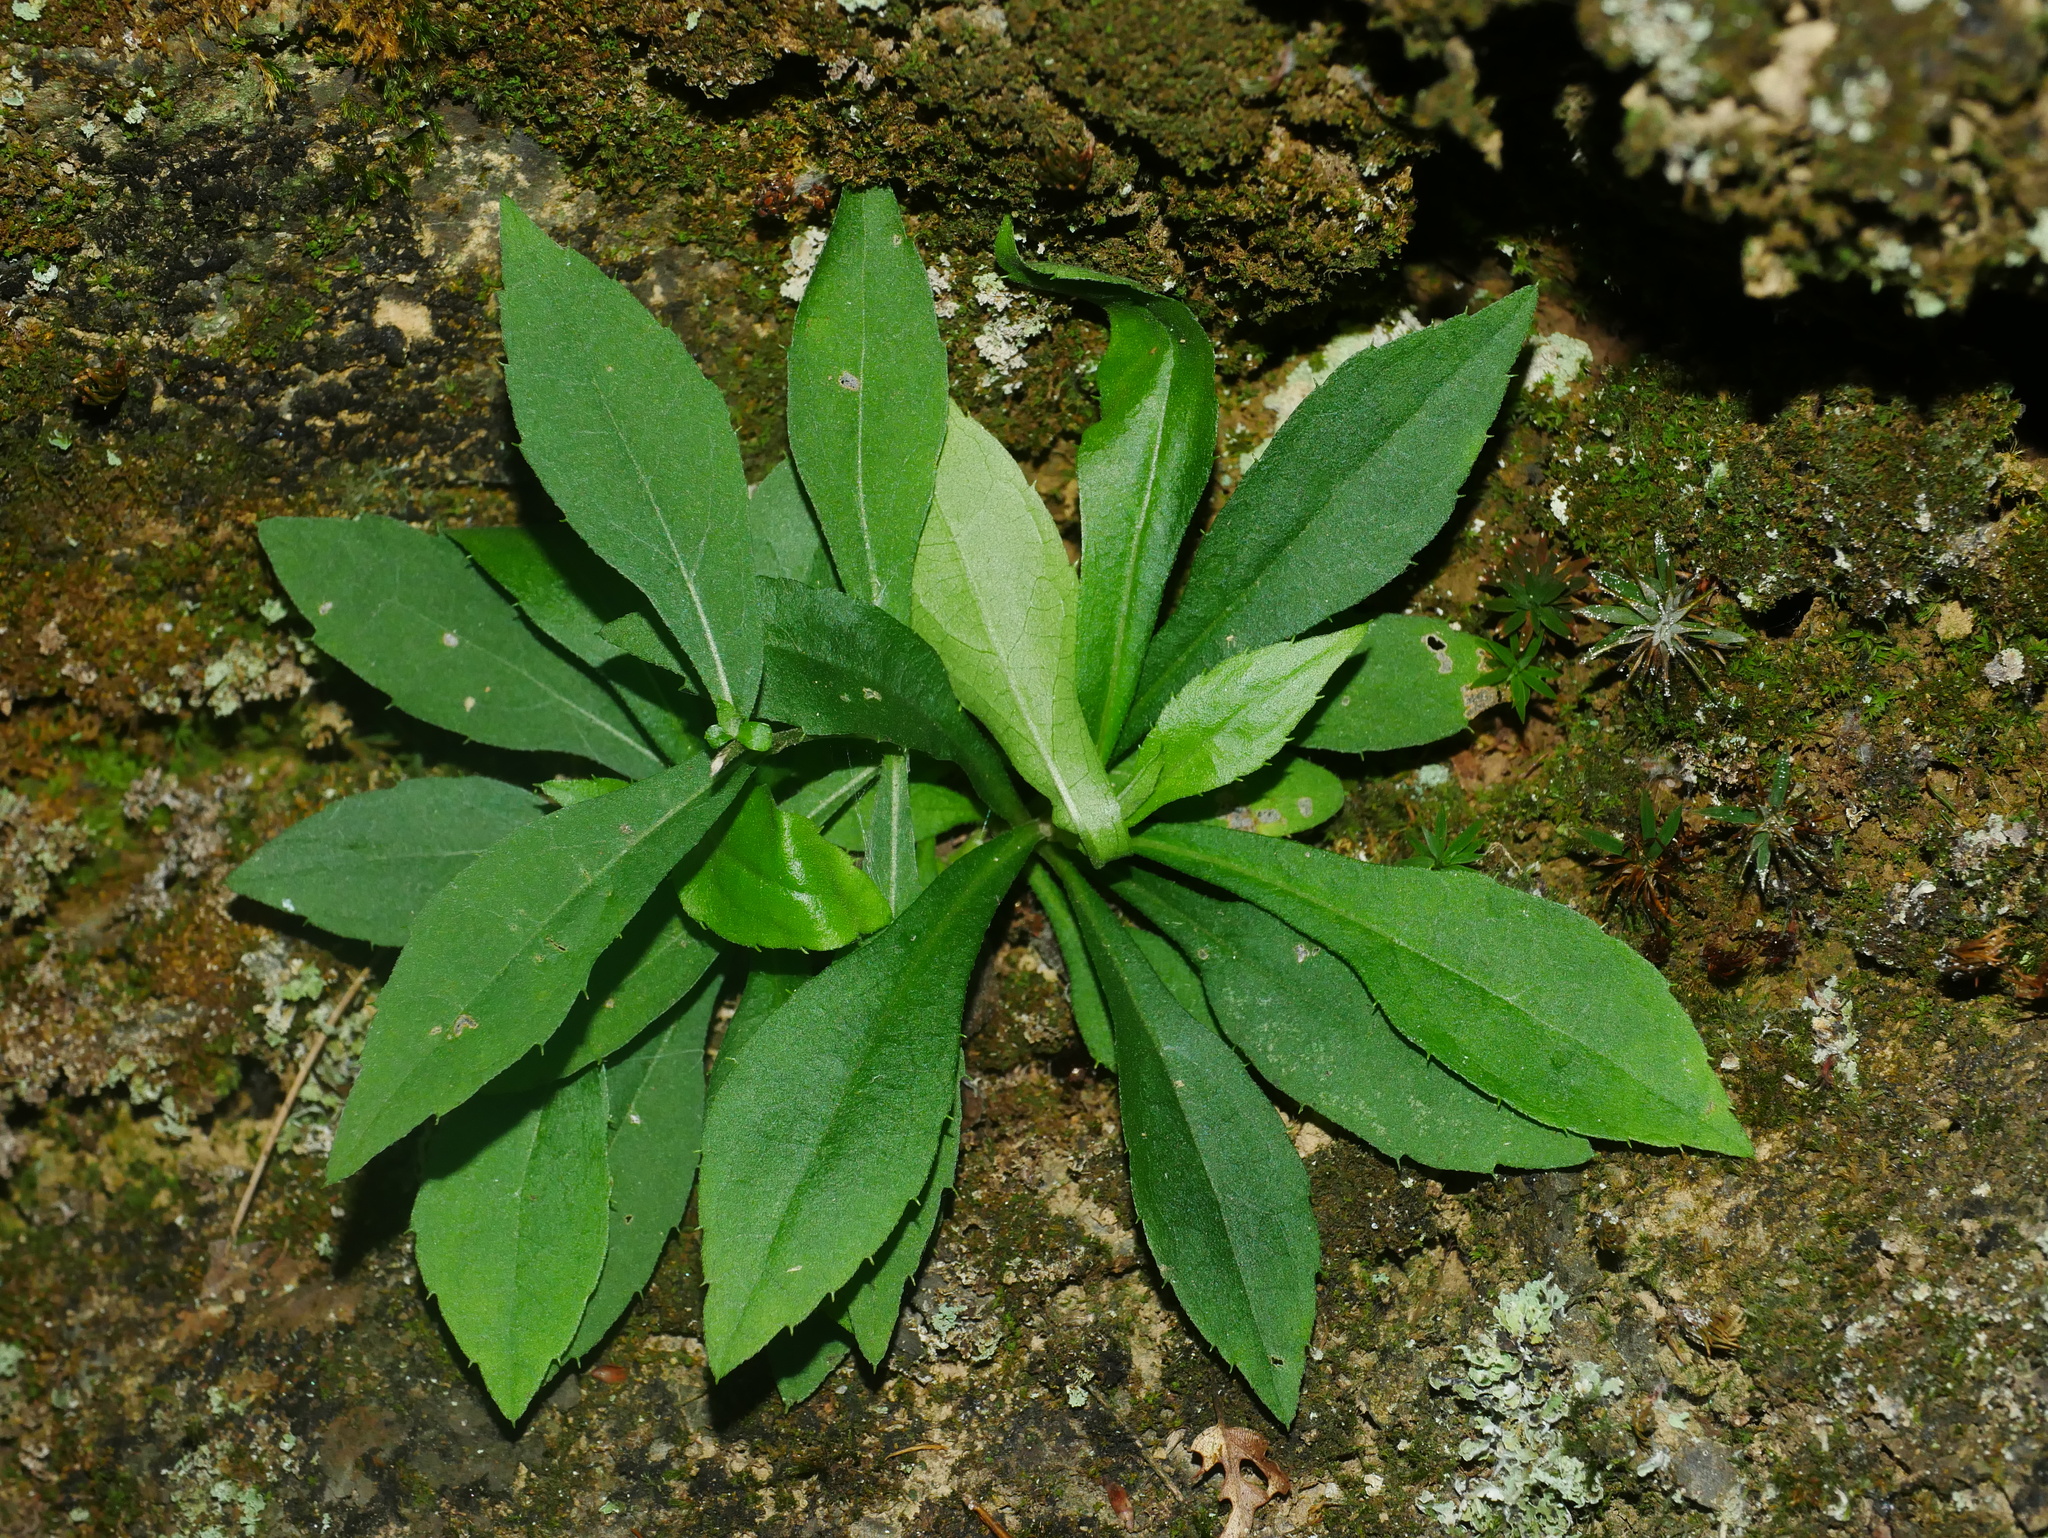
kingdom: Plantae
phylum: Tracheophyta
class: Magnoliopsida
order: Asterales
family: Asteraceae
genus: Aster
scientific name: Aster taiwanensis
